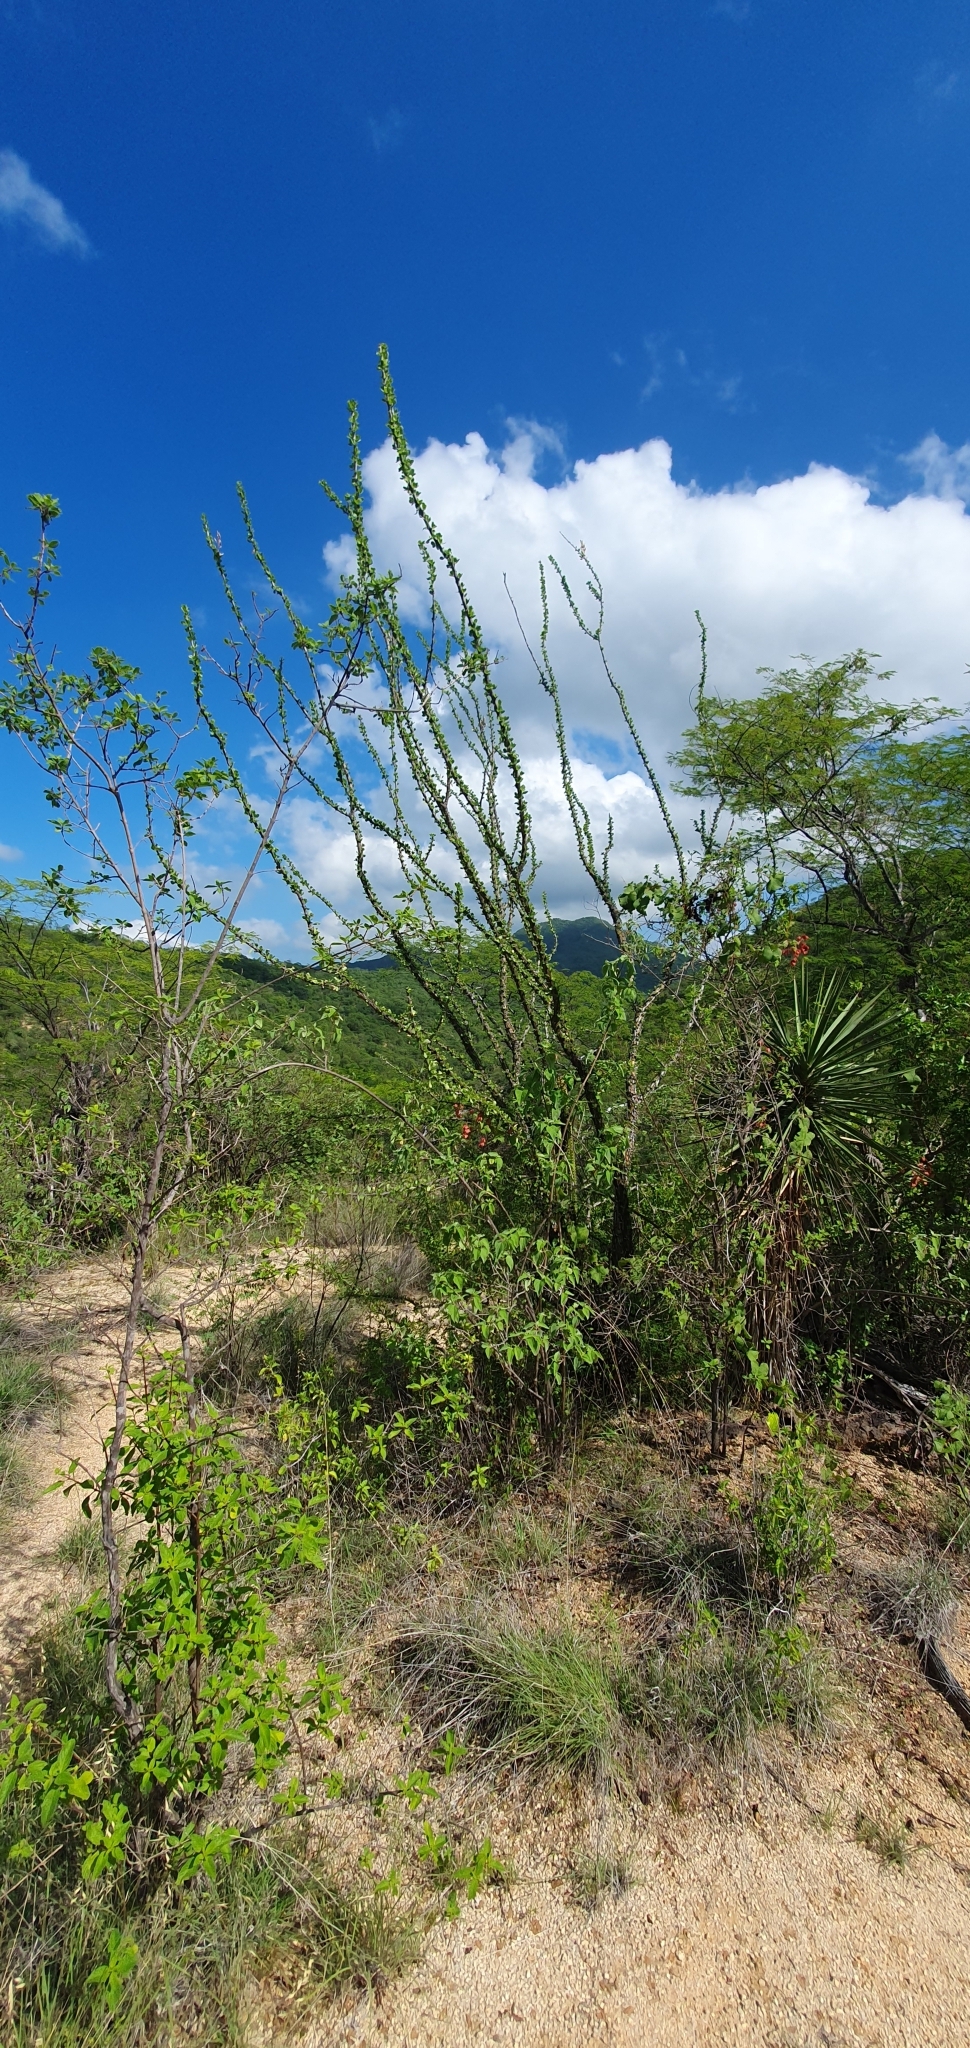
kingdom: Plantae
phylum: Tracheophyta
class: Magnoliopsida
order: Ericales
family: Fouquieriaceae
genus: Fouquieria
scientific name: Fouquieria diguetii
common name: Adam's tree
